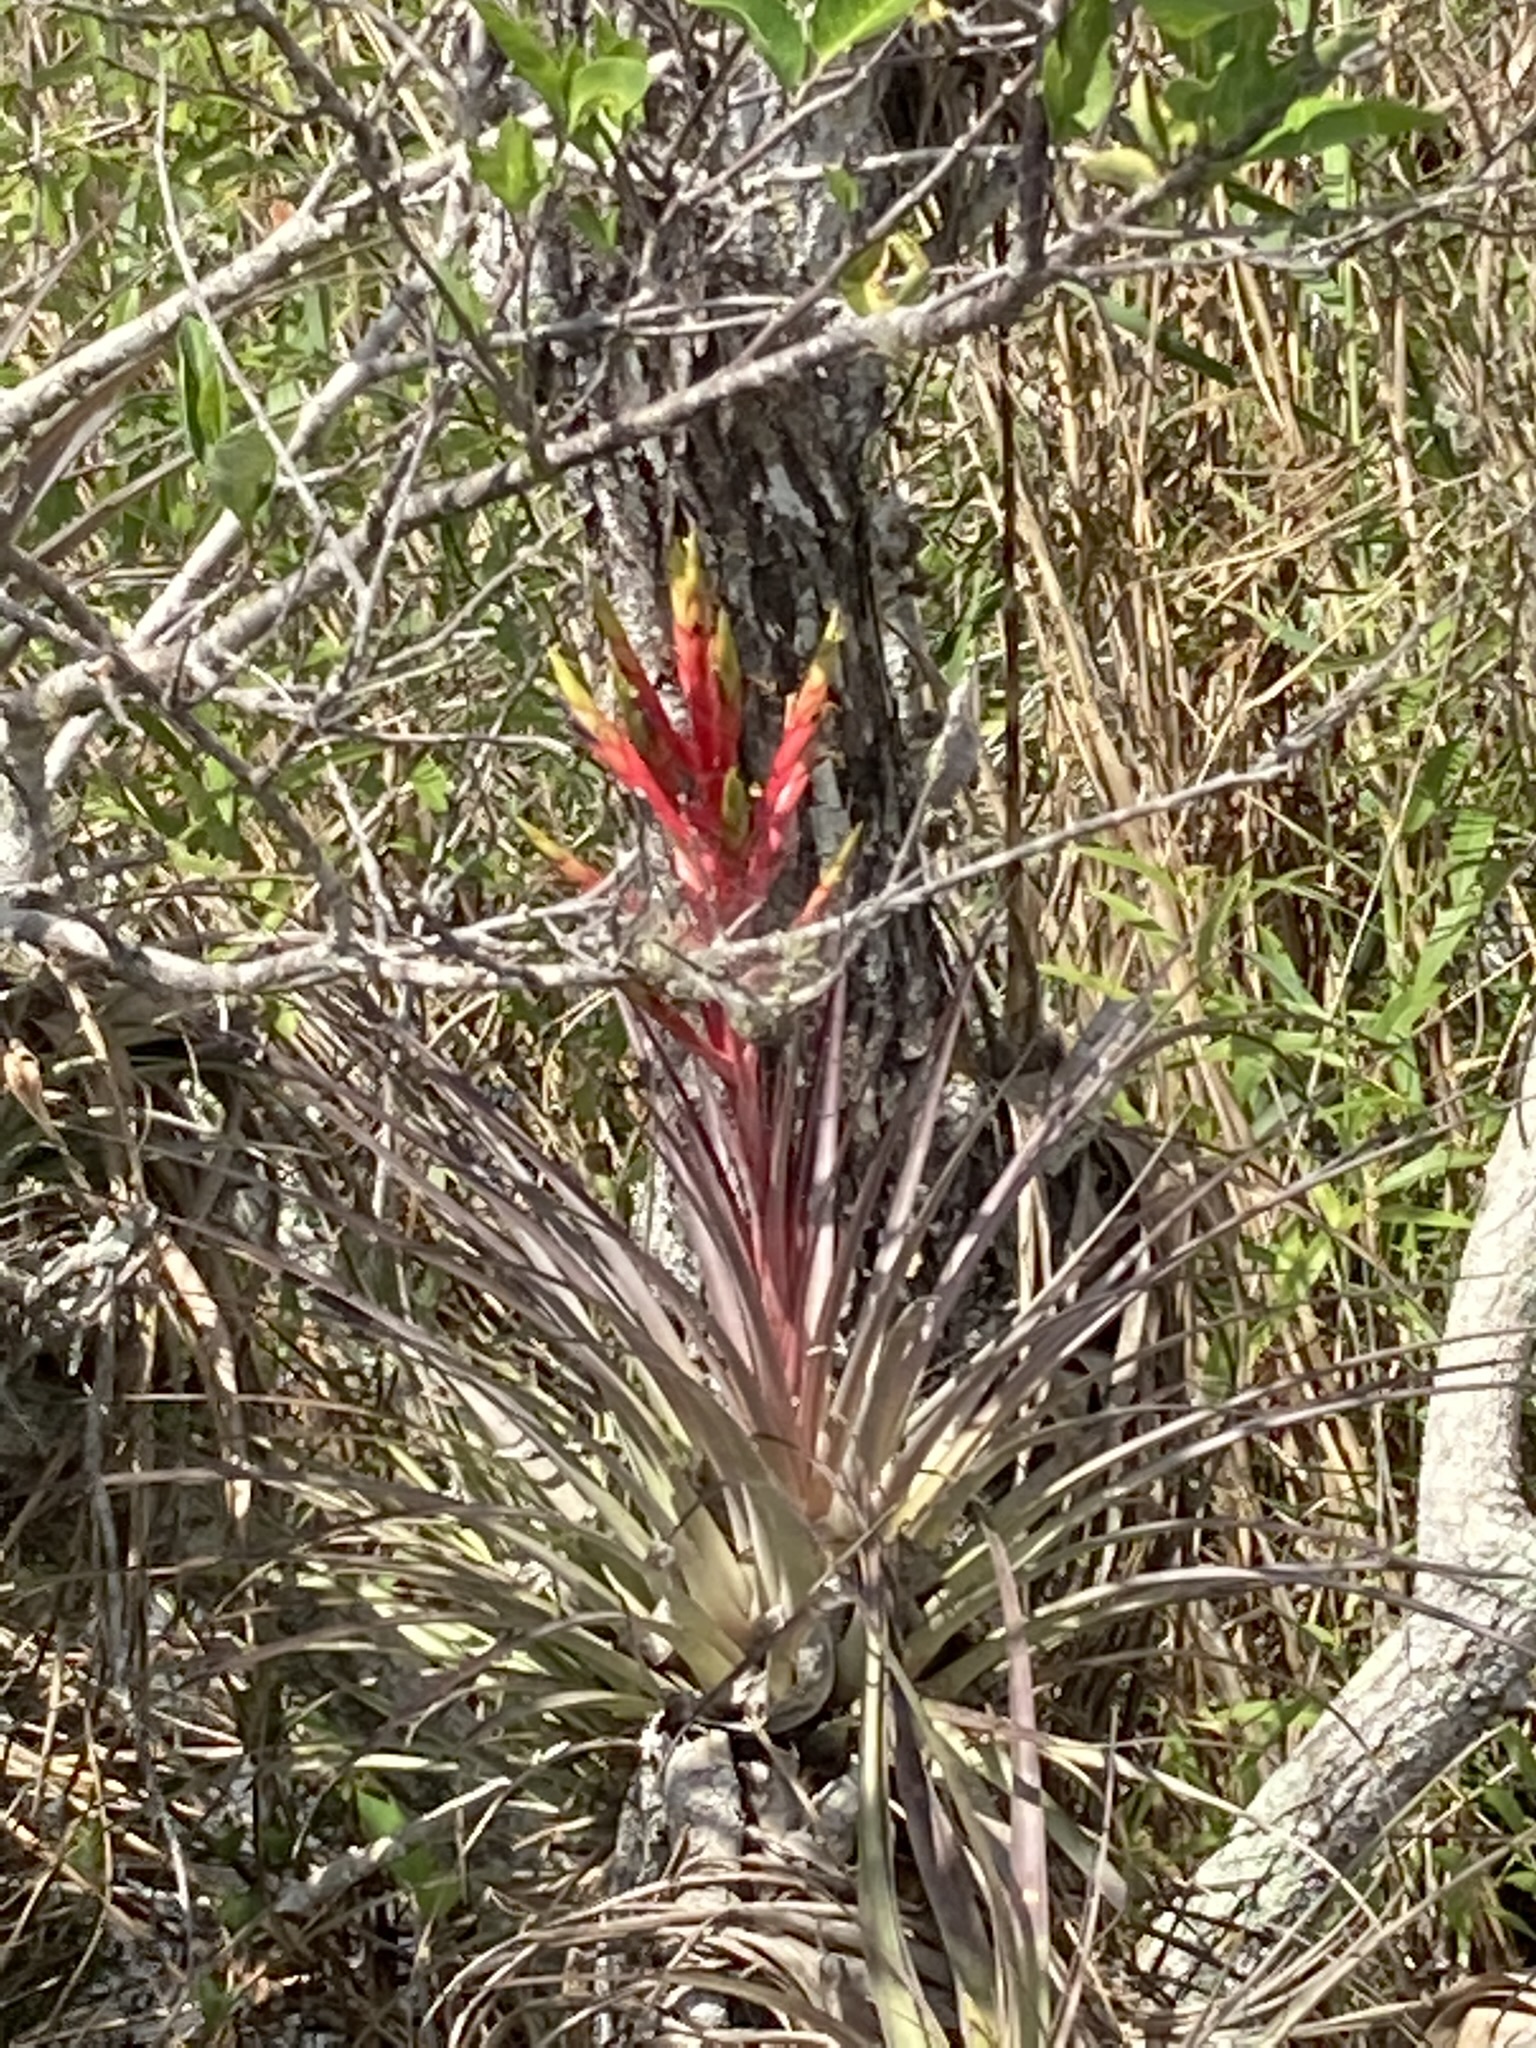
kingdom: Plantae
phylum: Tracheophyta
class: Liliopsida
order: Poales
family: Bromeliaceae
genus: Tillandsia
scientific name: Tillandsia fasciculata
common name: Giant airplant
